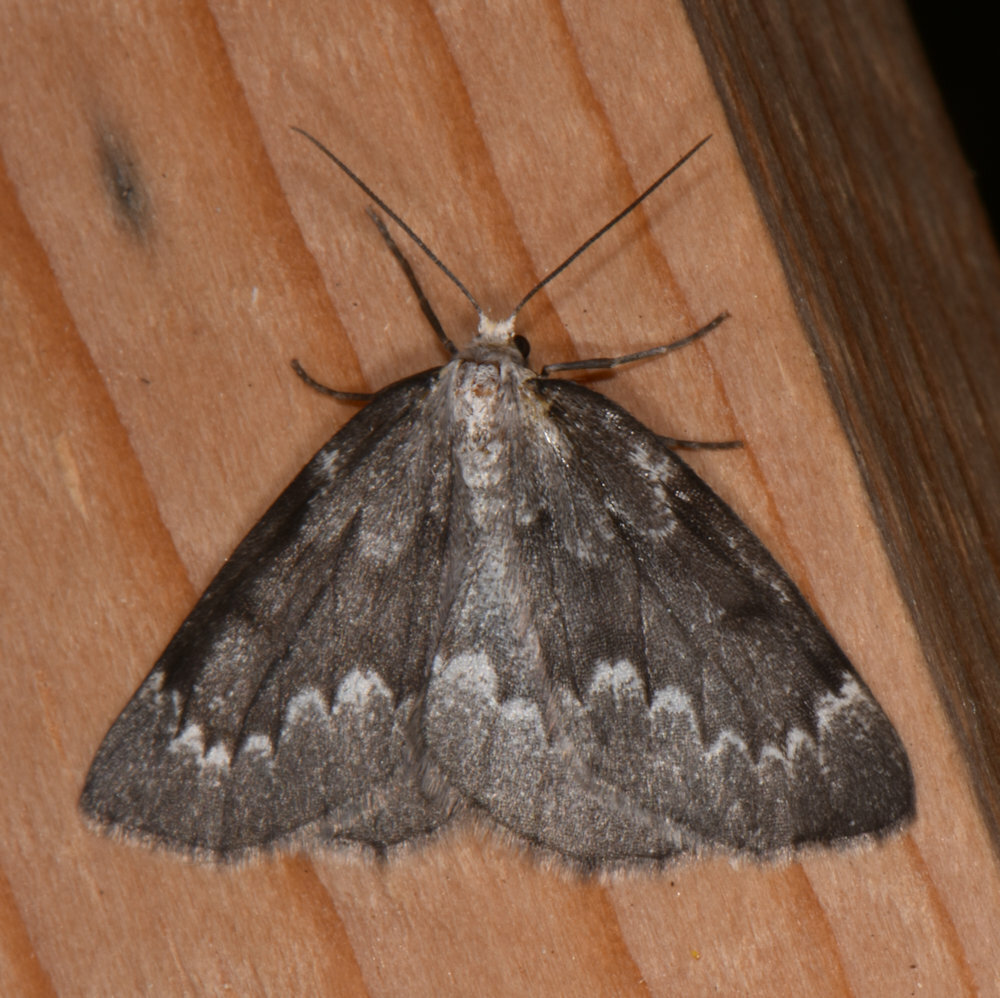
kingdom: Animalia
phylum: Arthropoda
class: Insecta
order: Lepidoptera
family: Geometridae
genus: Nepytia
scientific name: Nepytia canosaria
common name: False hemlock looper
